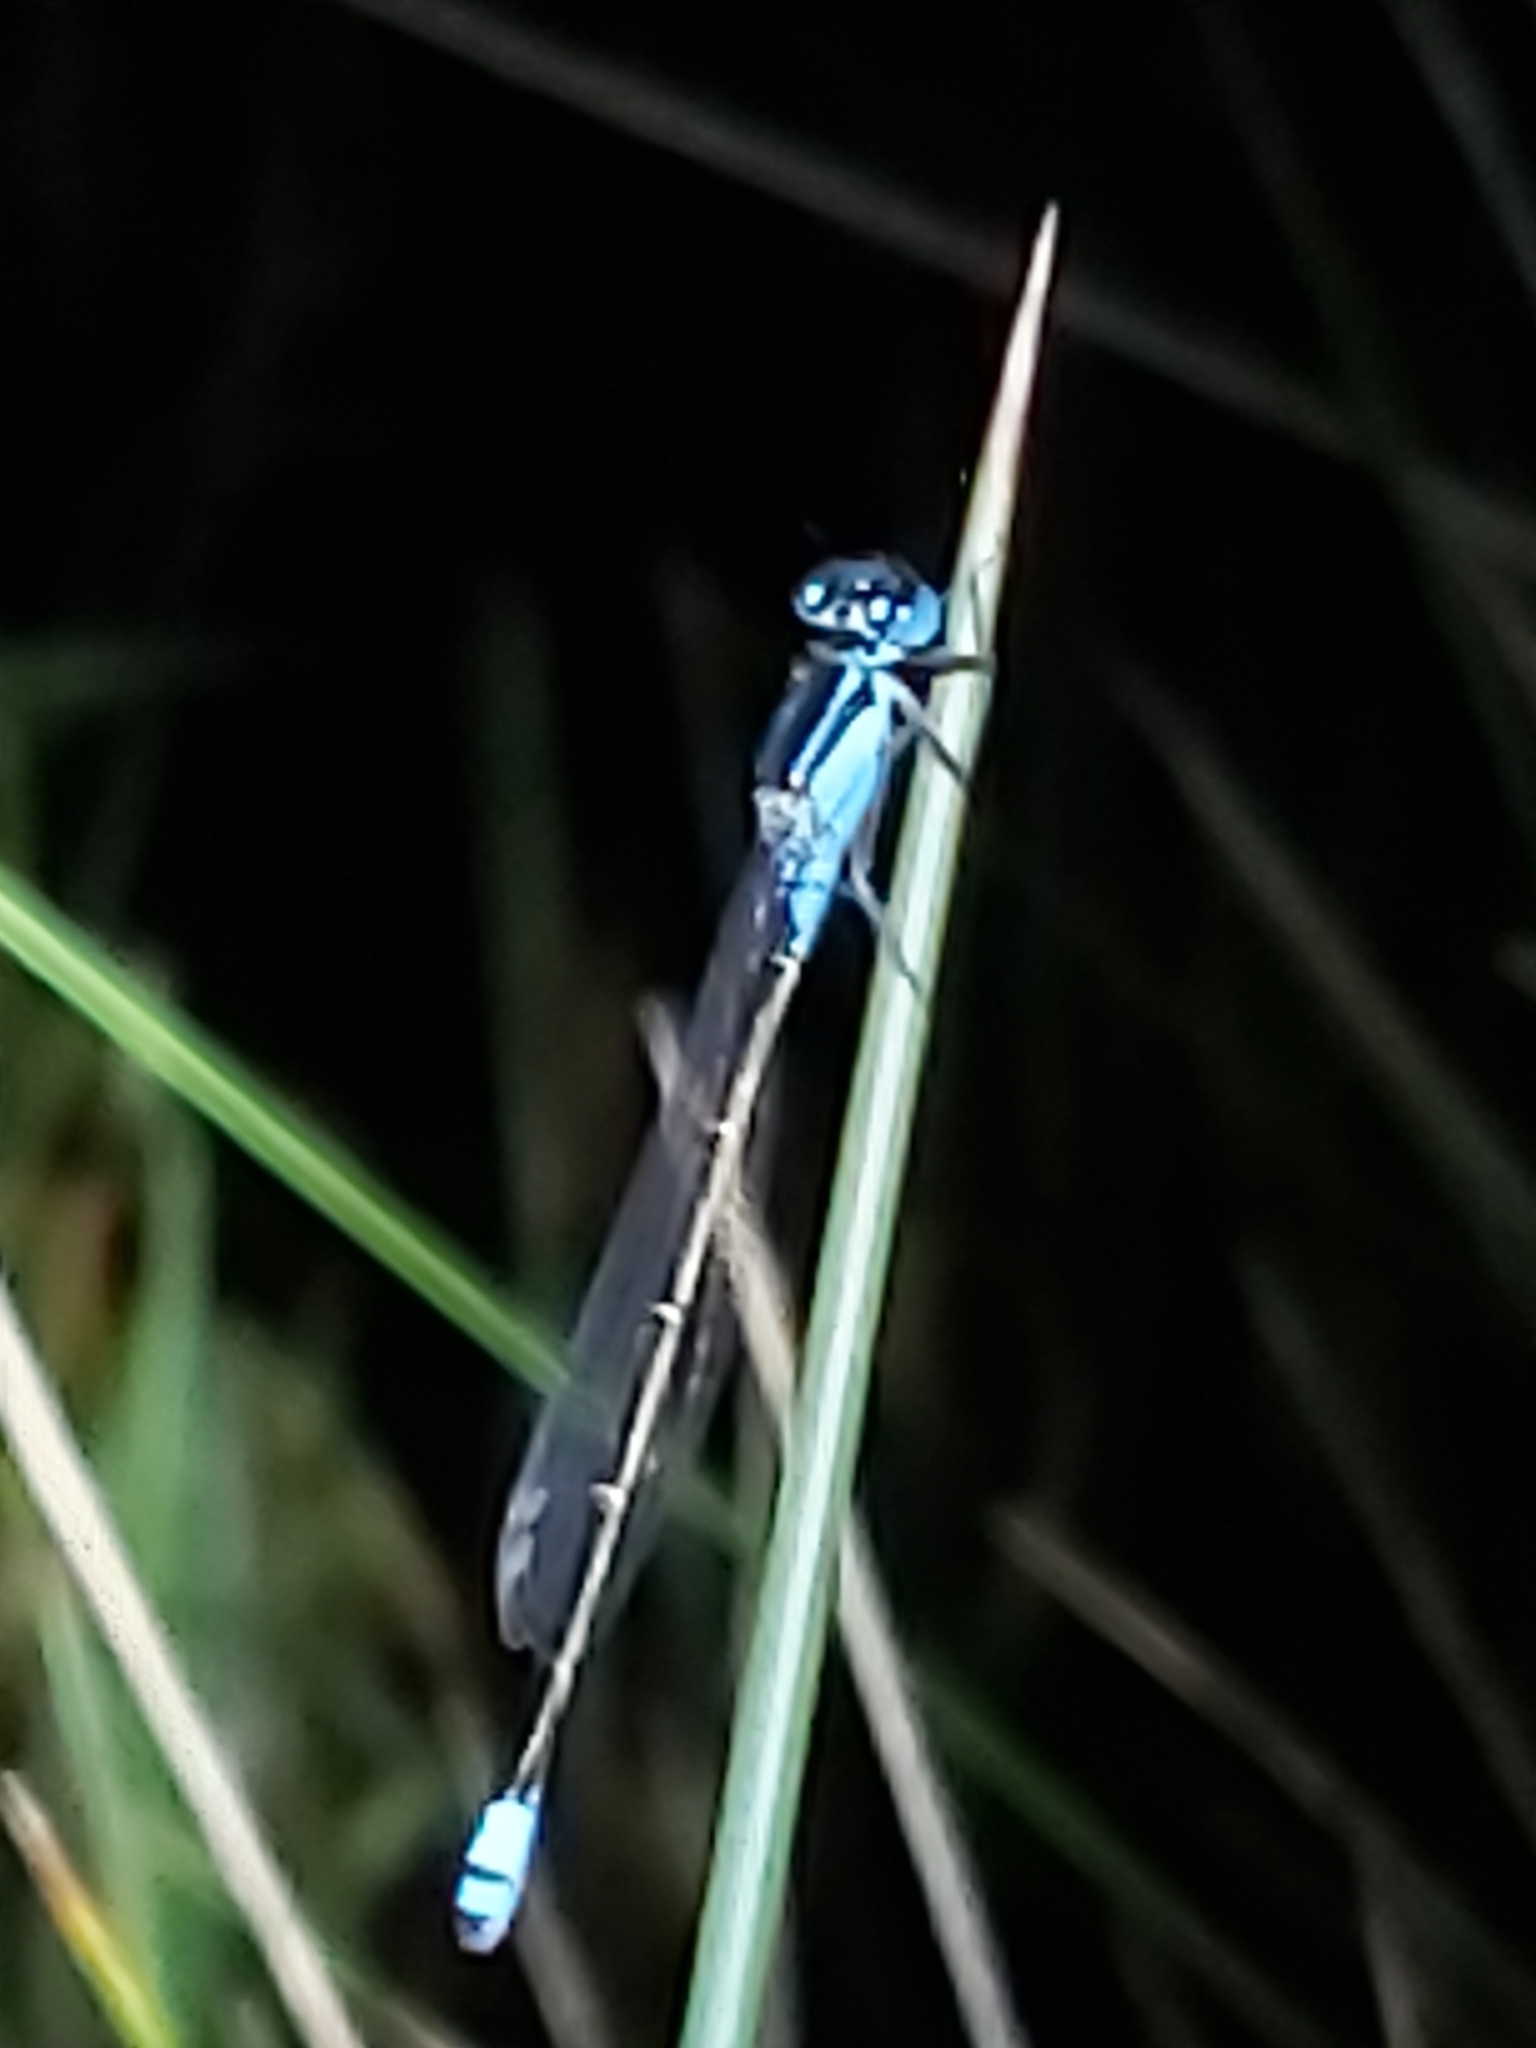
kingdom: Animalia
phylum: Arthropoda
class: Insecta
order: Odonata
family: Coenagrionidae
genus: Ischnura
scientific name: Ischnura heterosticta
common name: Common bluetail
